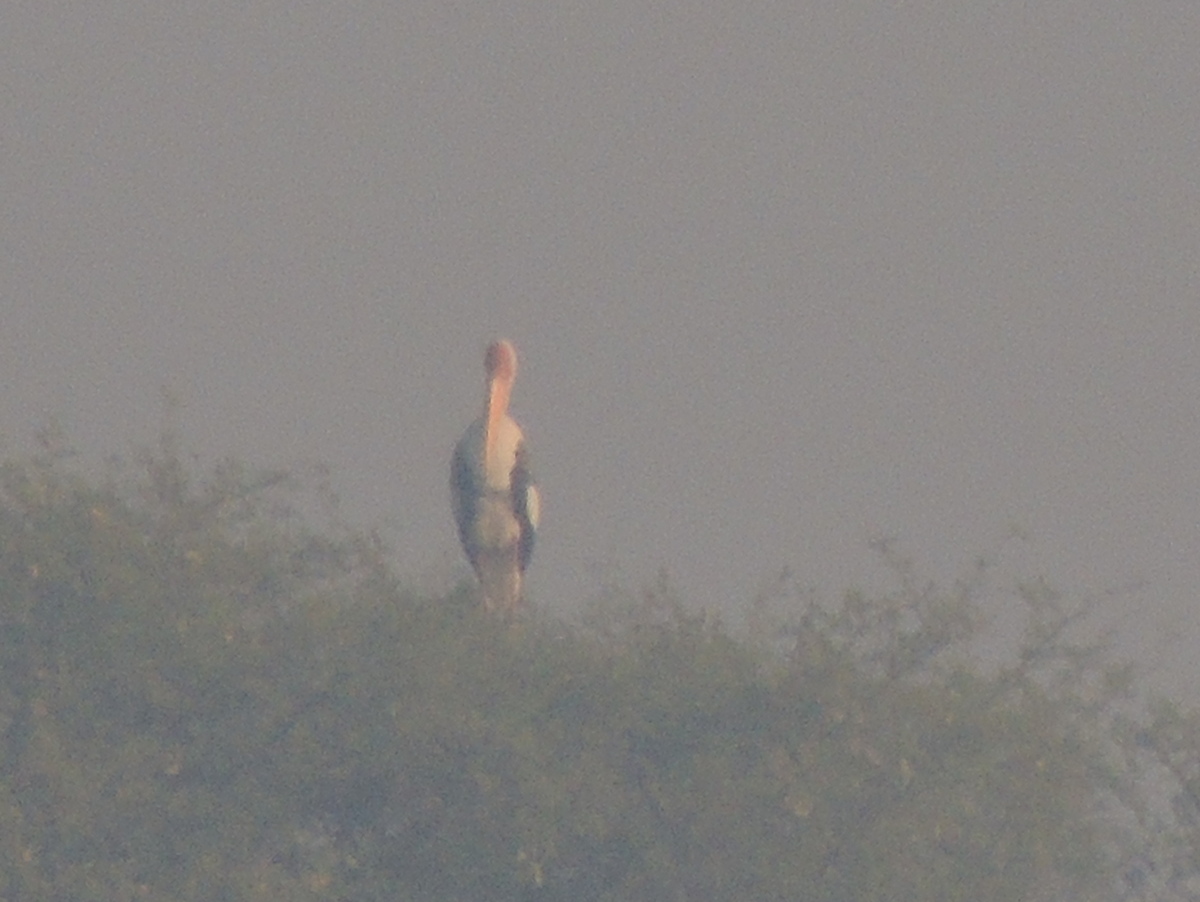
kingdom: Animalia
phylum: Chordata
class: Aves
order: Ciconiiformes
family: Ciconiidae
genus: Mycteria
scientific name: Mycteria leucocephala
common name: Painted stork
